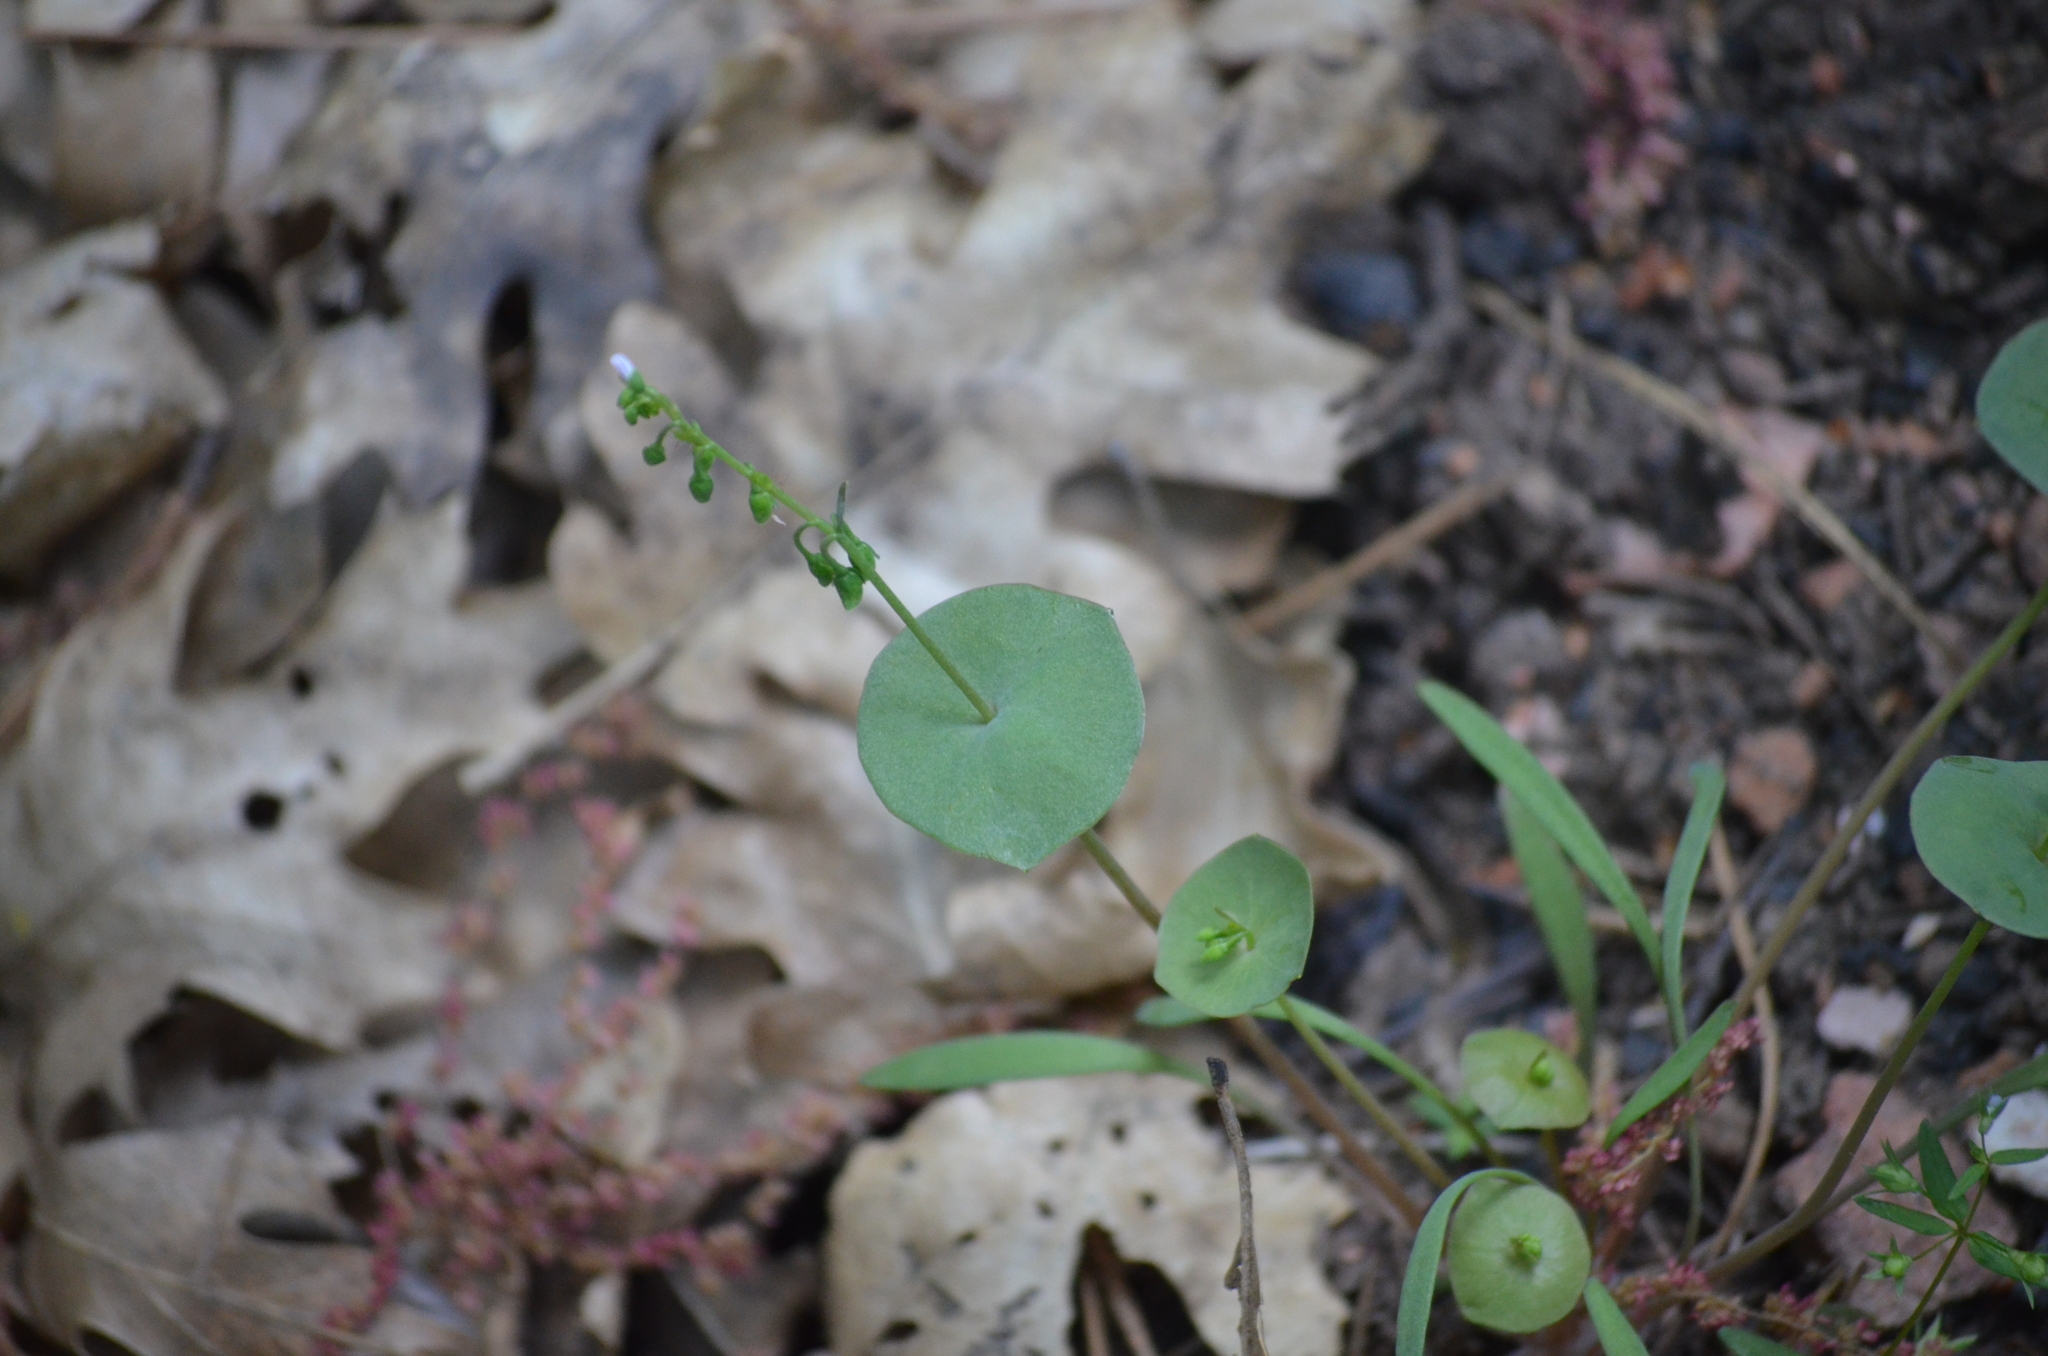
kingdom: Plantae
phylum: Tracheophyta
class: Magnoliopsida
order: Caryophyllales
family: Montiaceae
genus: Claytonia
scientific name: Claytonia parviflora
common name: Indian-lettuce
